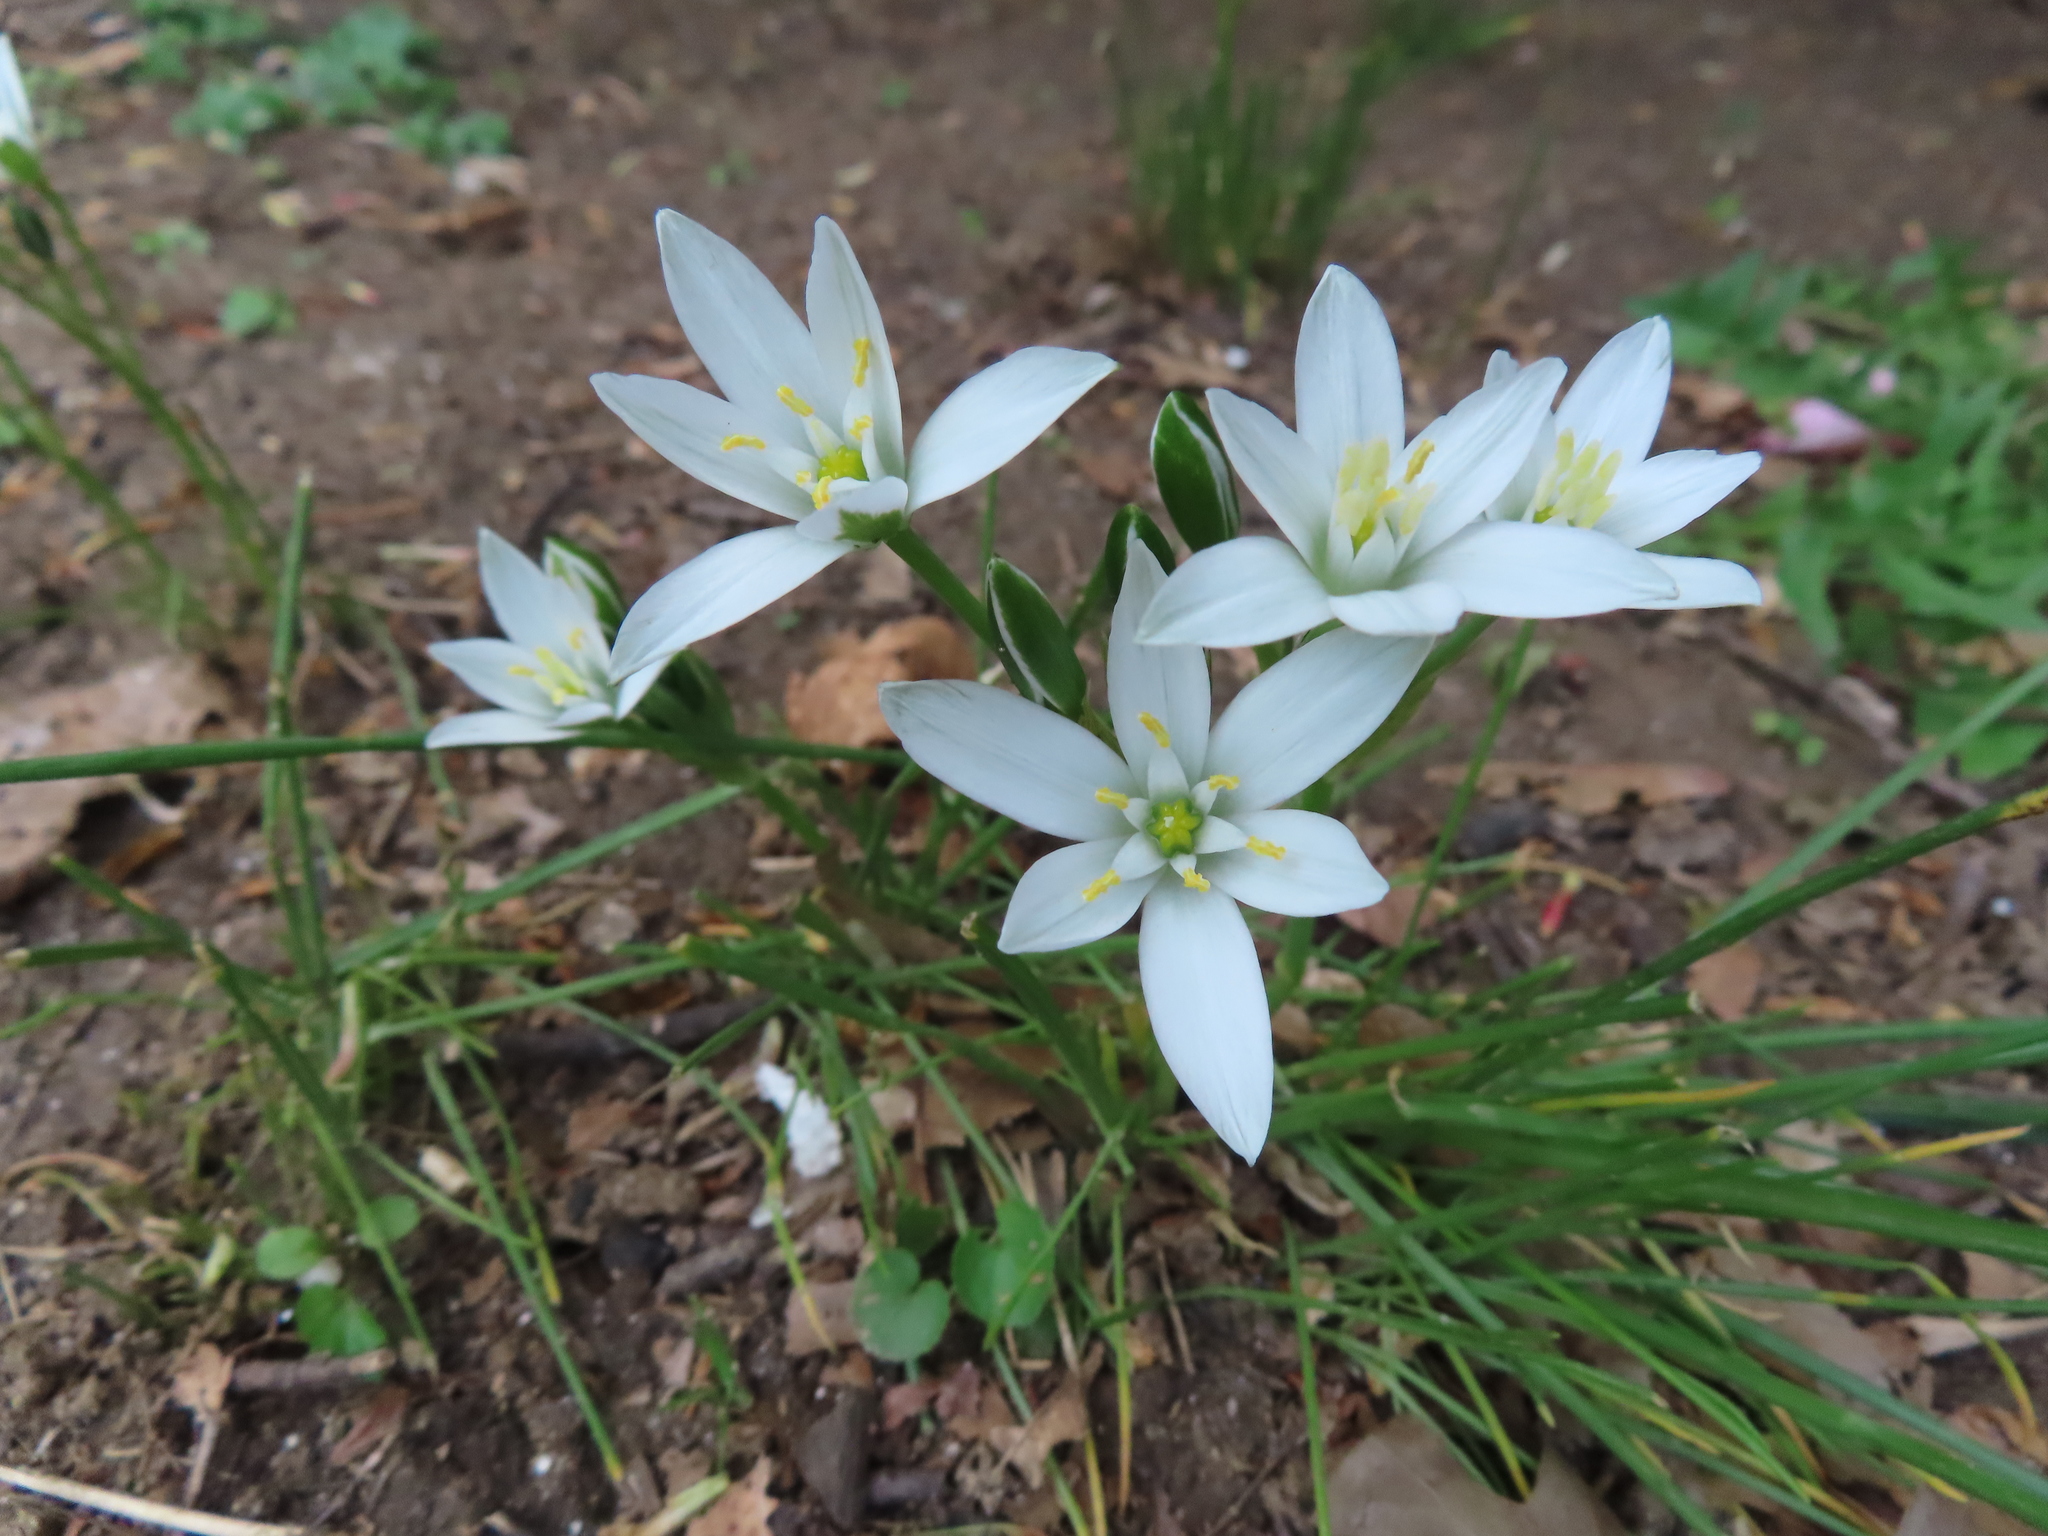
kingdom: Plantae
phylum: Tracheophyta
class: Liliopsida
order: Asparagales
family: Asparagaceae
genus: Ornithogalum
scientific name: Ornithogalum umbellatum
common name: Garden star-of-bethlehem
